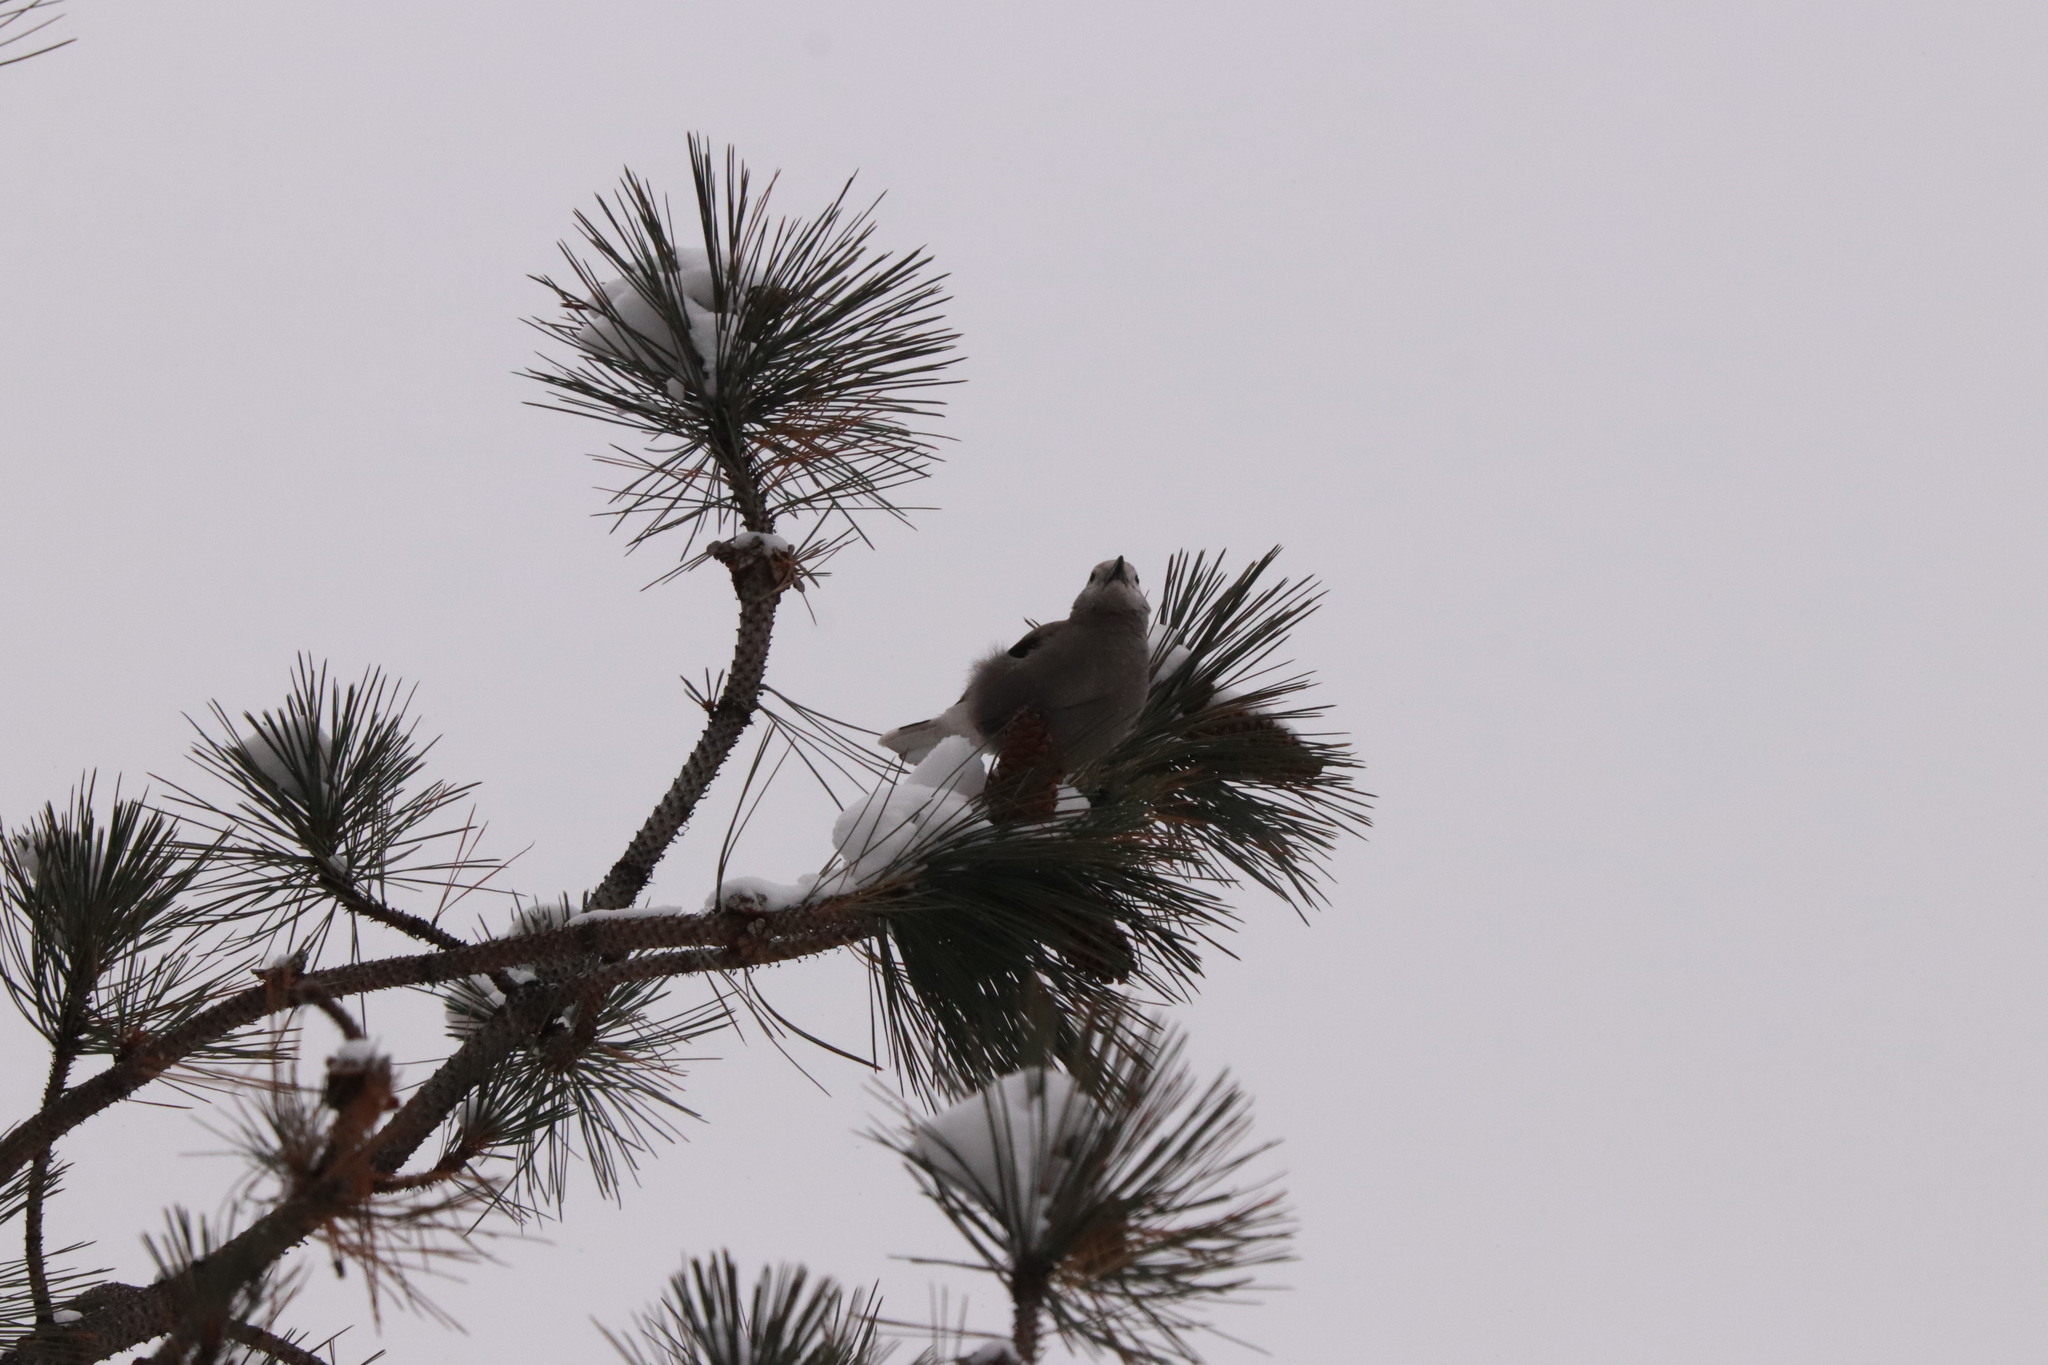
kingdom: Animalia
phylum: Chordata
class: Aves
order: Passeriformes
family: Corvidae
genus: Nucifraga
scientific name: Nucifraga columbiana
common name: Clark's nutcracker
